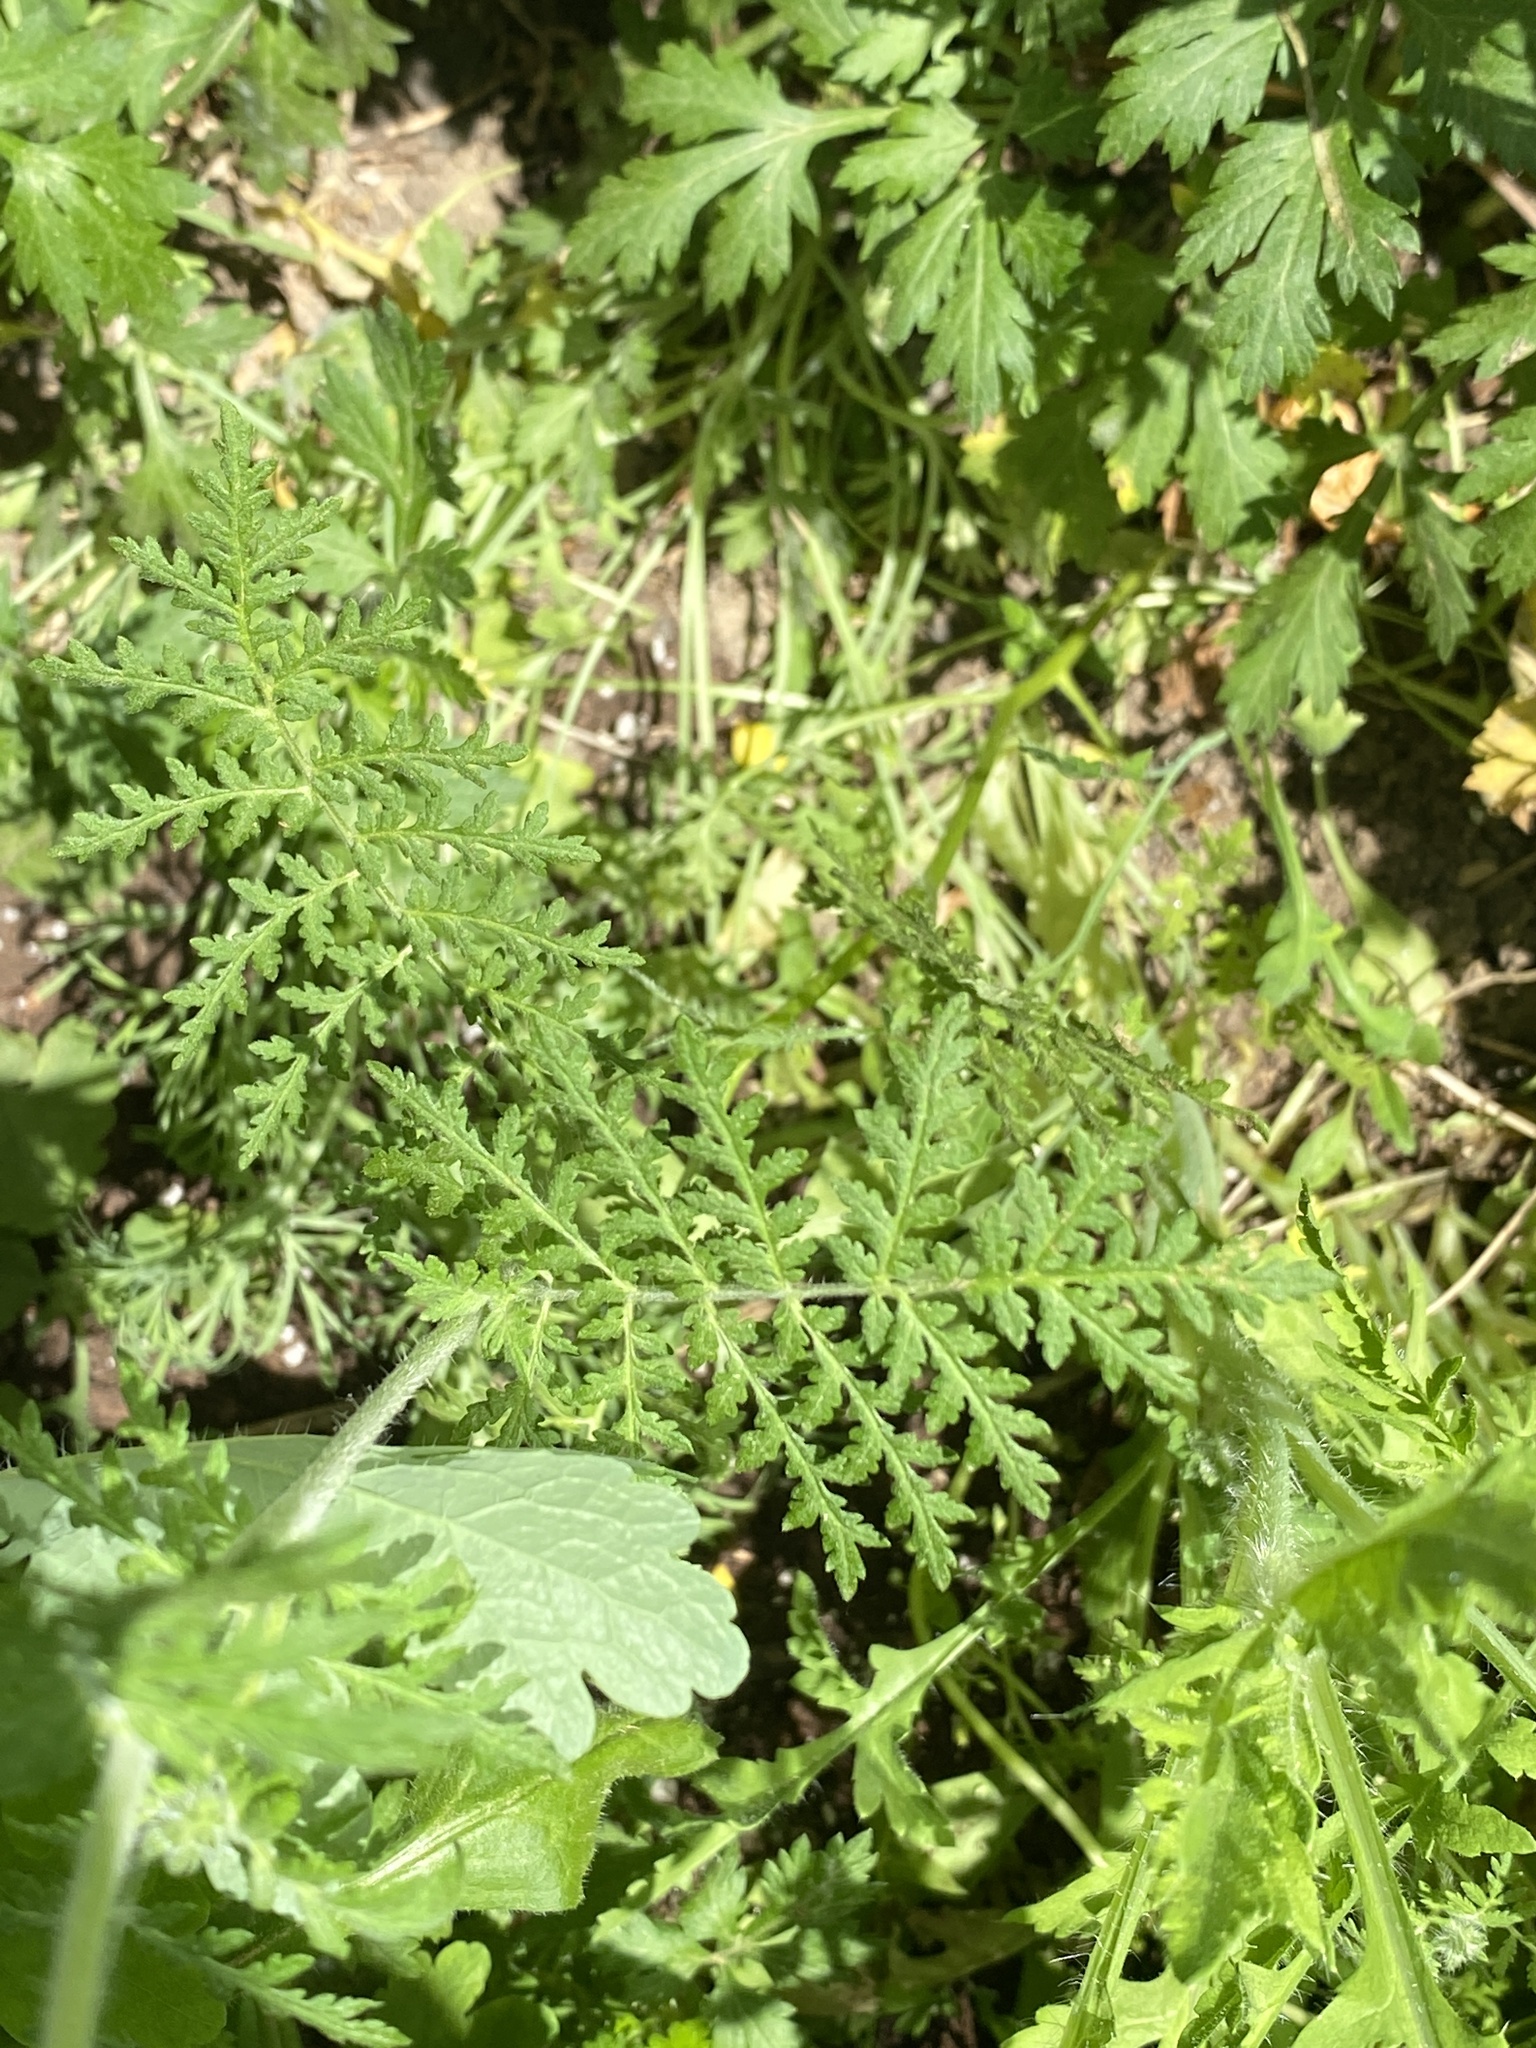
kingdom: Plantae
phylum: Tracheophyta
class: Magnoliopsida
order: Boraginales
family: Hydrophyllaceae
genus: Phacelia
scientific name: Phacelia tanacetifolia
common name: Phacelia
